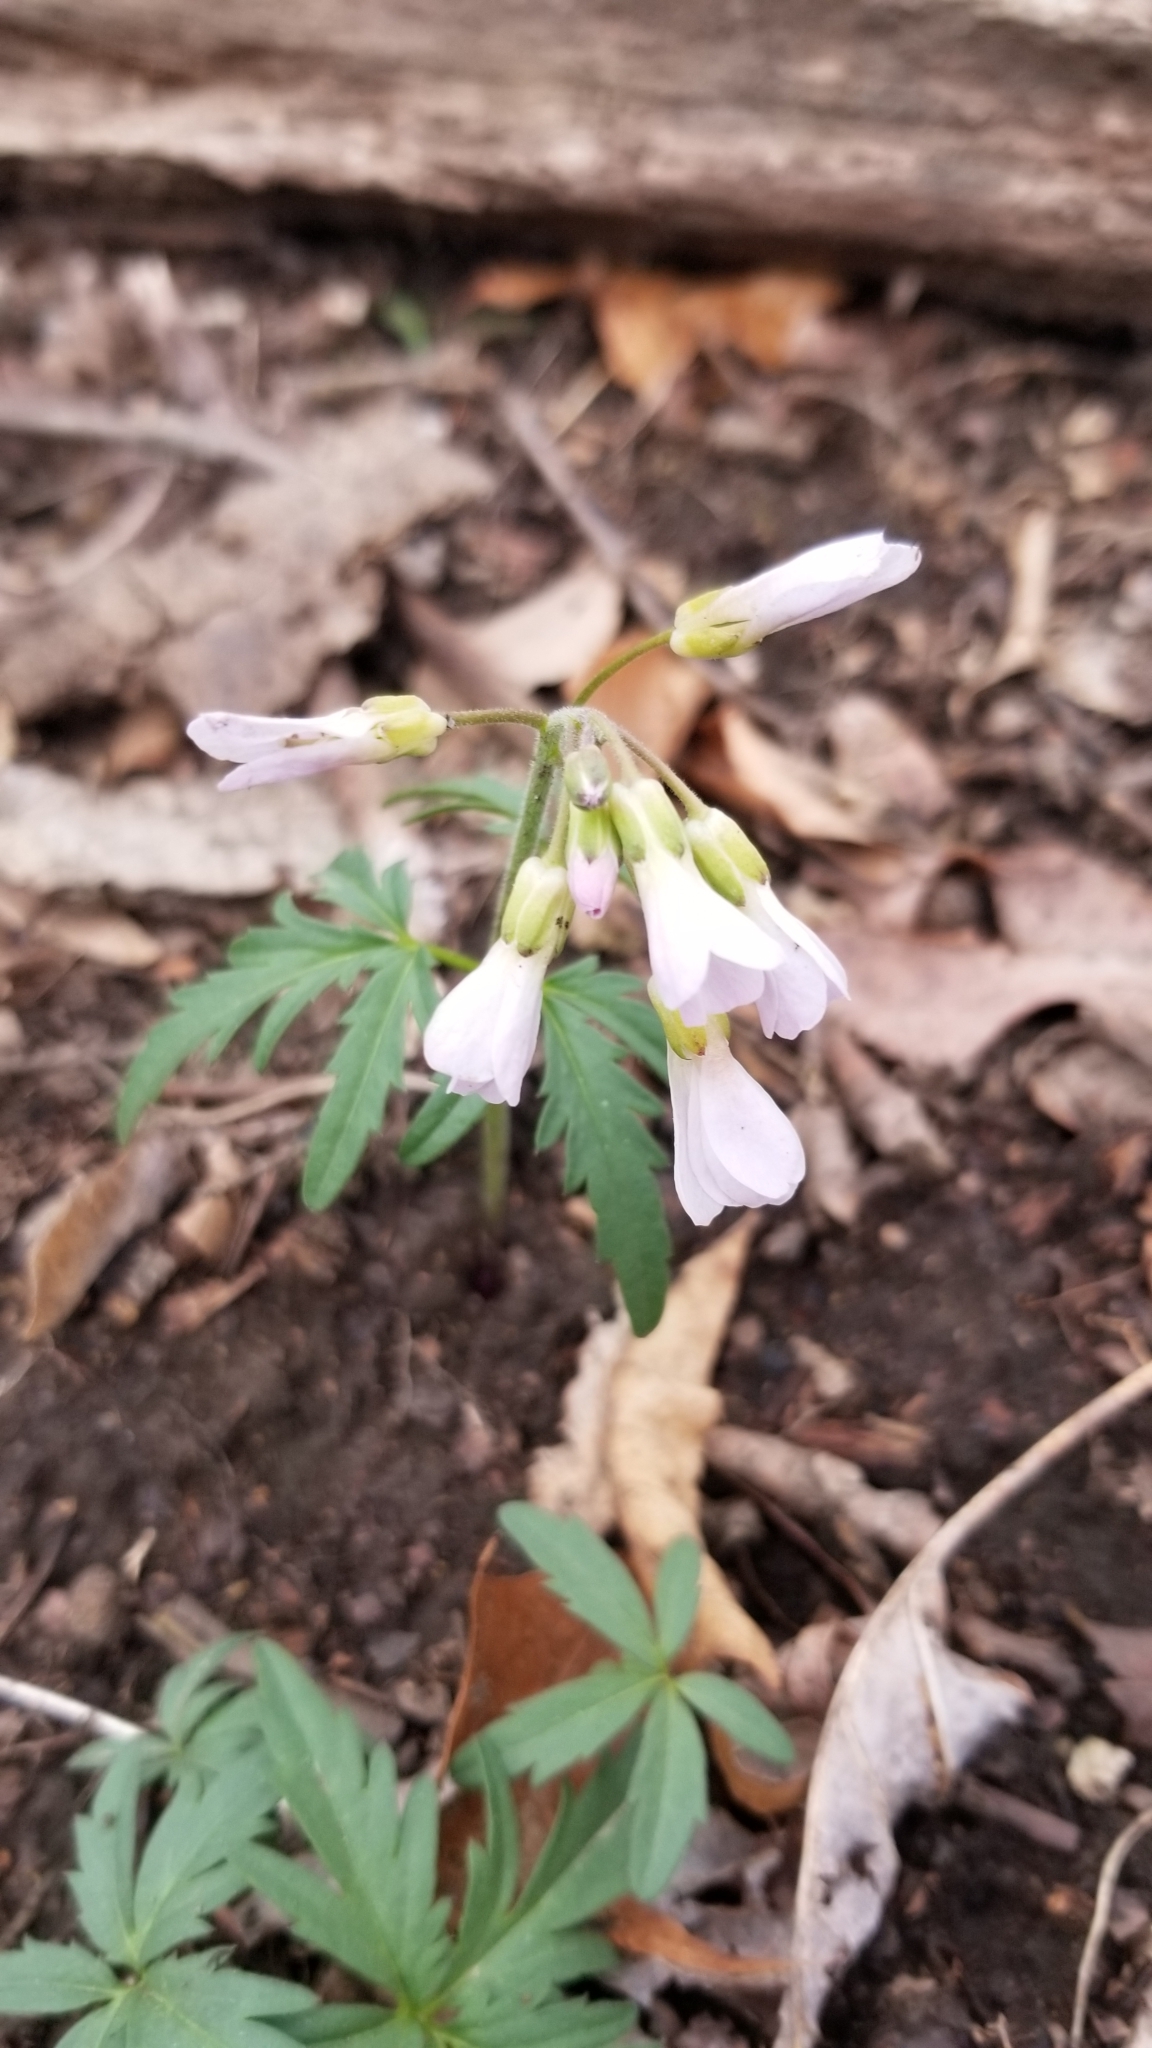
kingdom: Plantae
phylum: Tracheophyta
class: Magnoliopsida
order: Brassicales
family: Brassicaceae
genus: Cardamine
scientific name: Cardamine concatenata
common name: Cut-leaf toothcup
